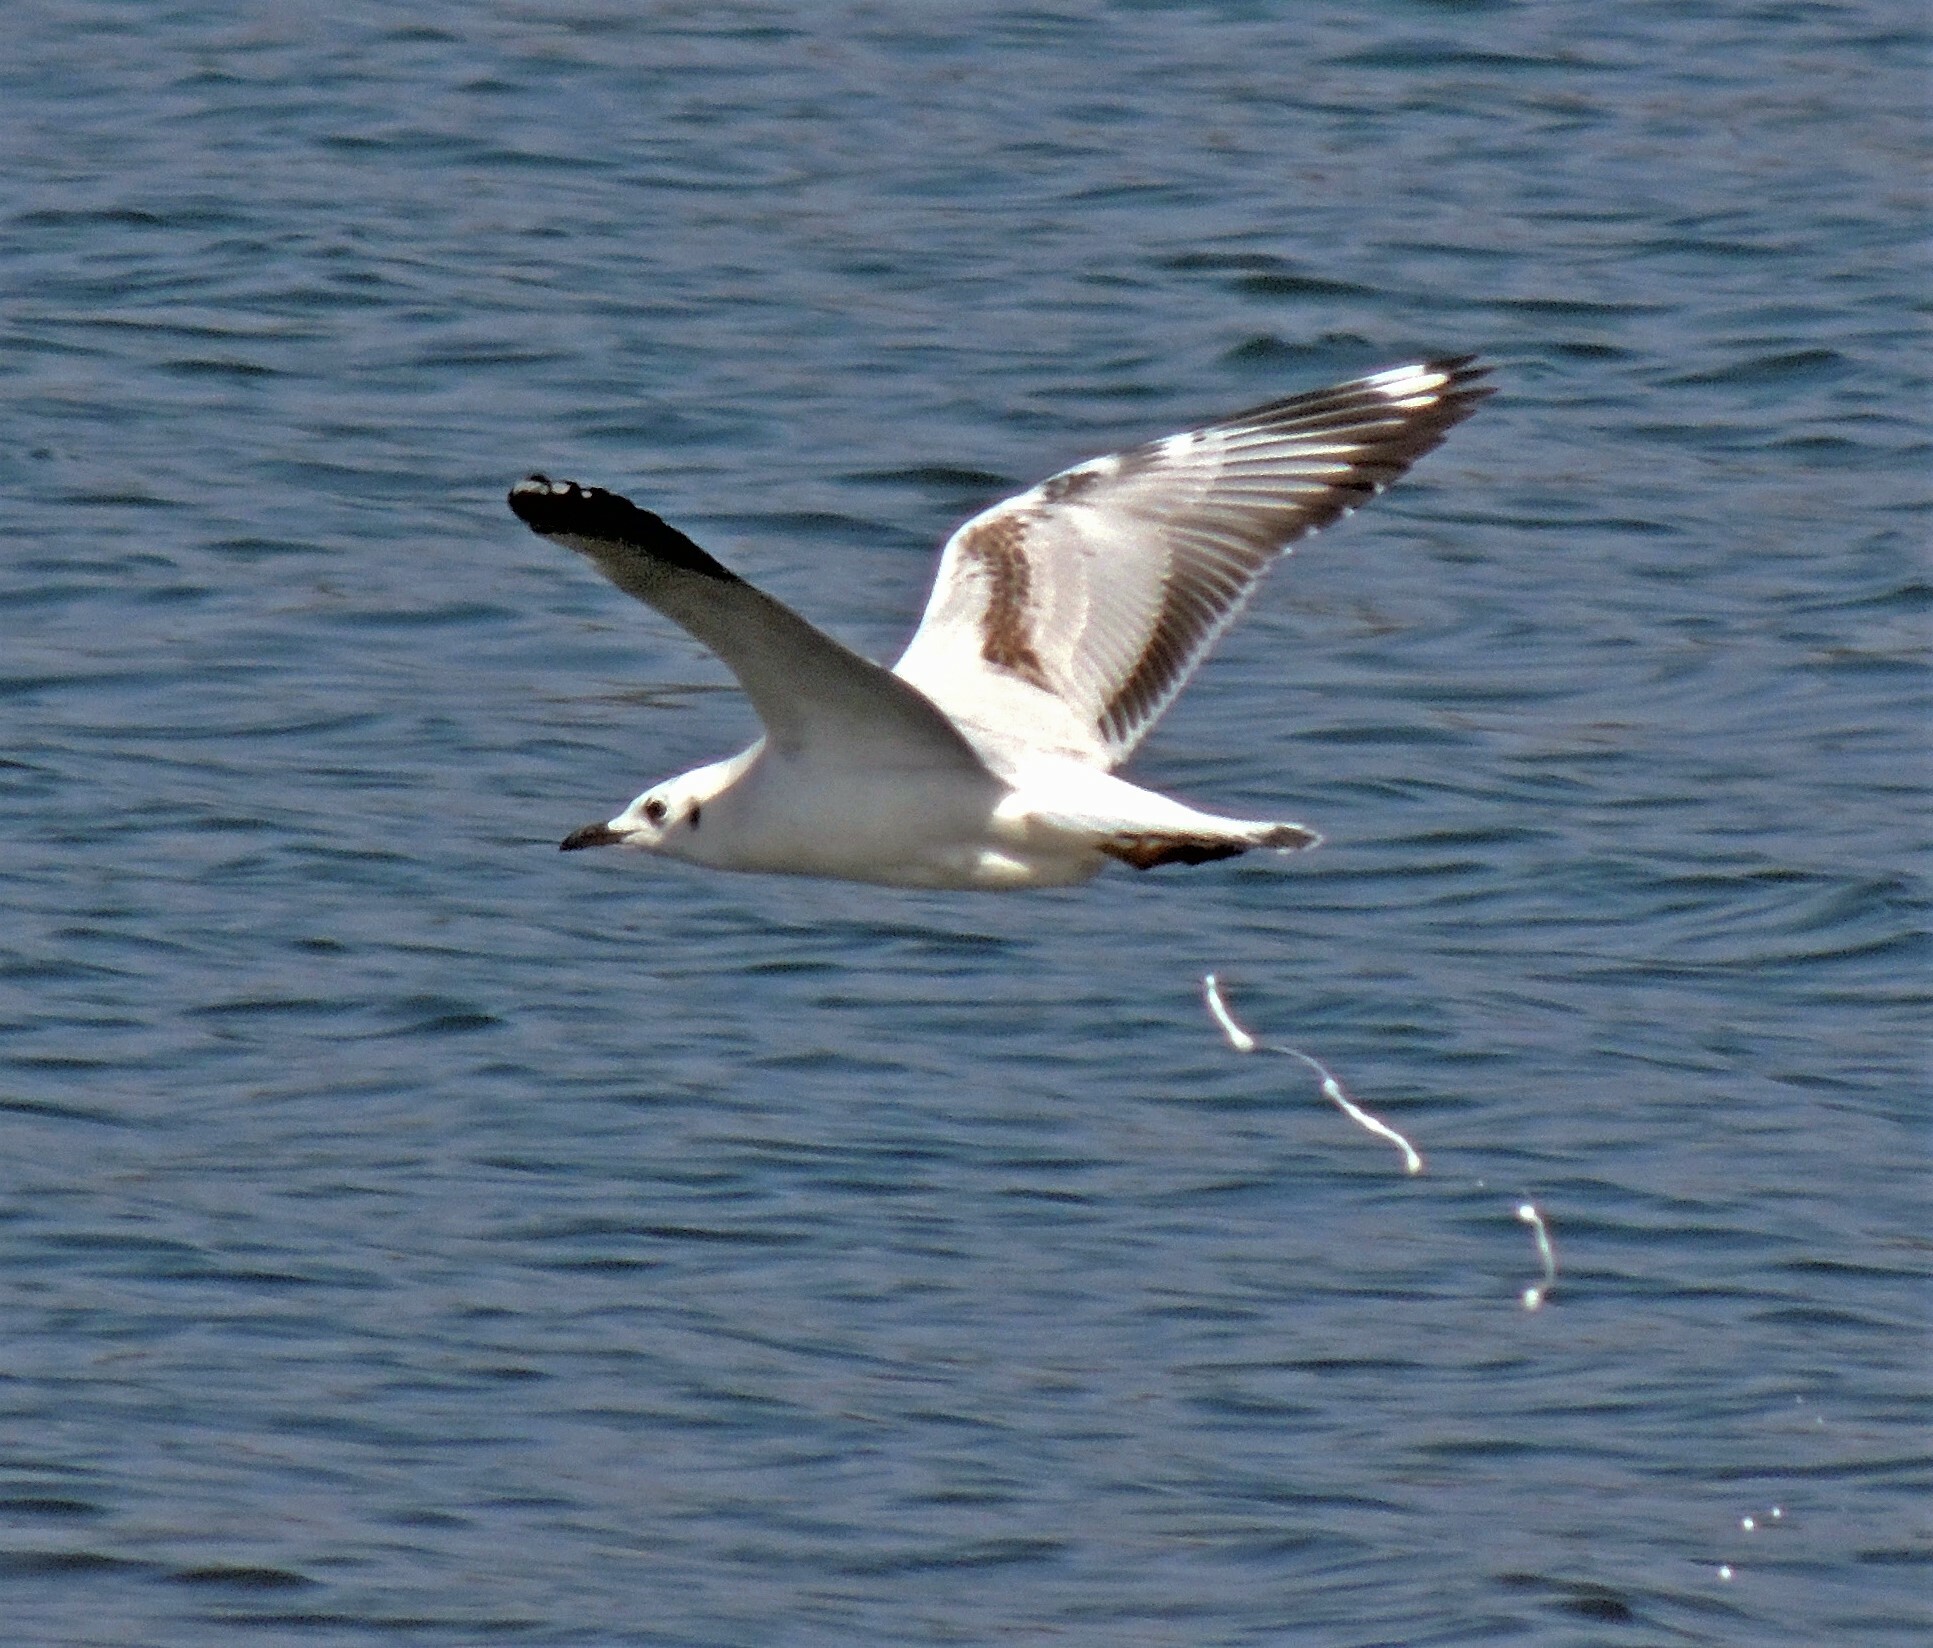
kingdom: Animalia
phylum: Chordata
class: Aves
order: Charadriiformes
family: Laridae
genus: Chroicocephalus
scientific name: Chroicocephalus serranus
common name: Andean gull
